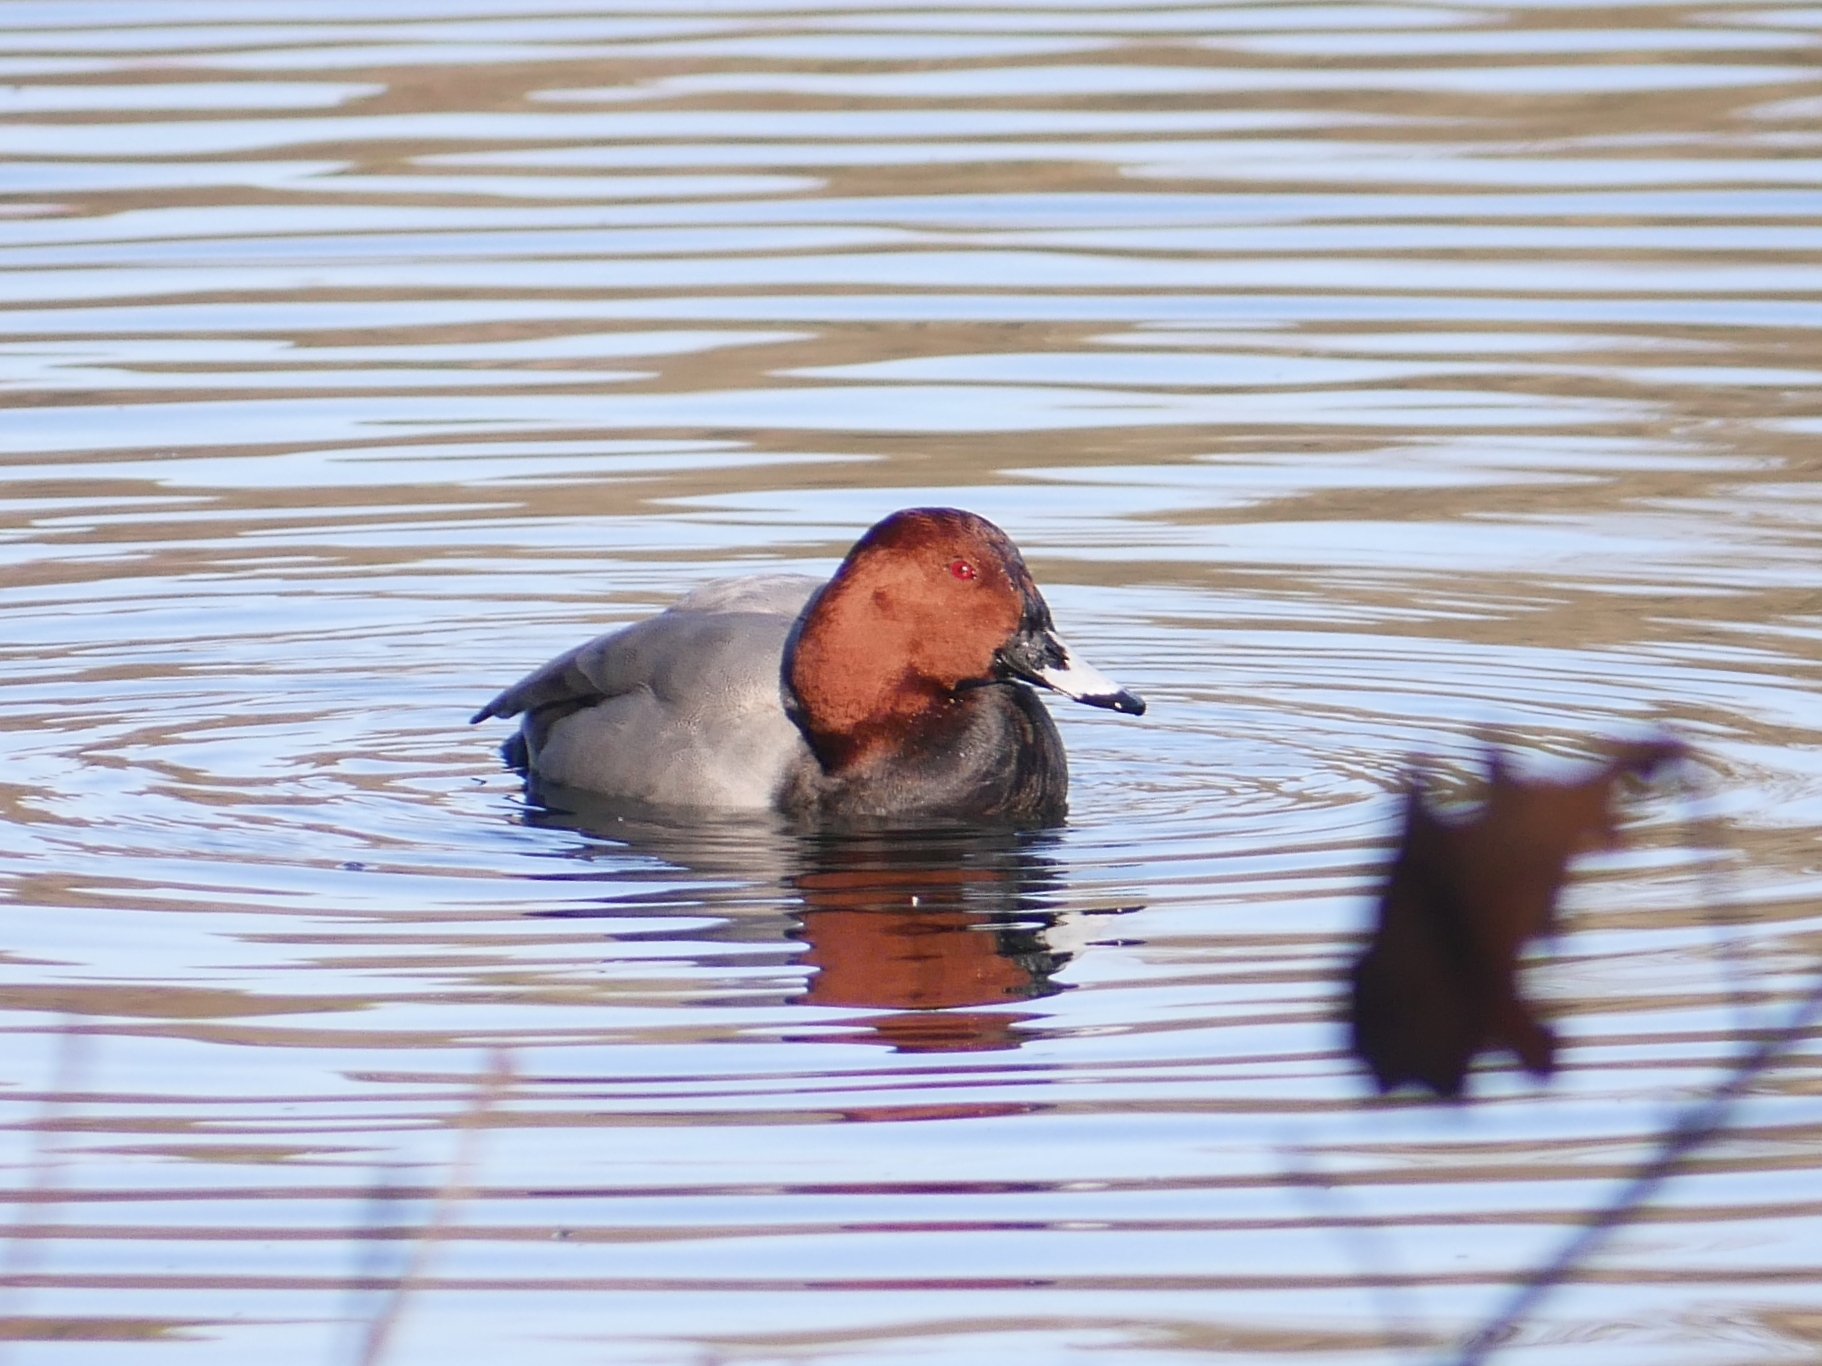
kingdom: Animalia
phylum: Chordata
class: Aves
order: Anseriformes
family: Anatidae
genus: Aythya
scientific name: Aythya ferina
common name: Common pochard
